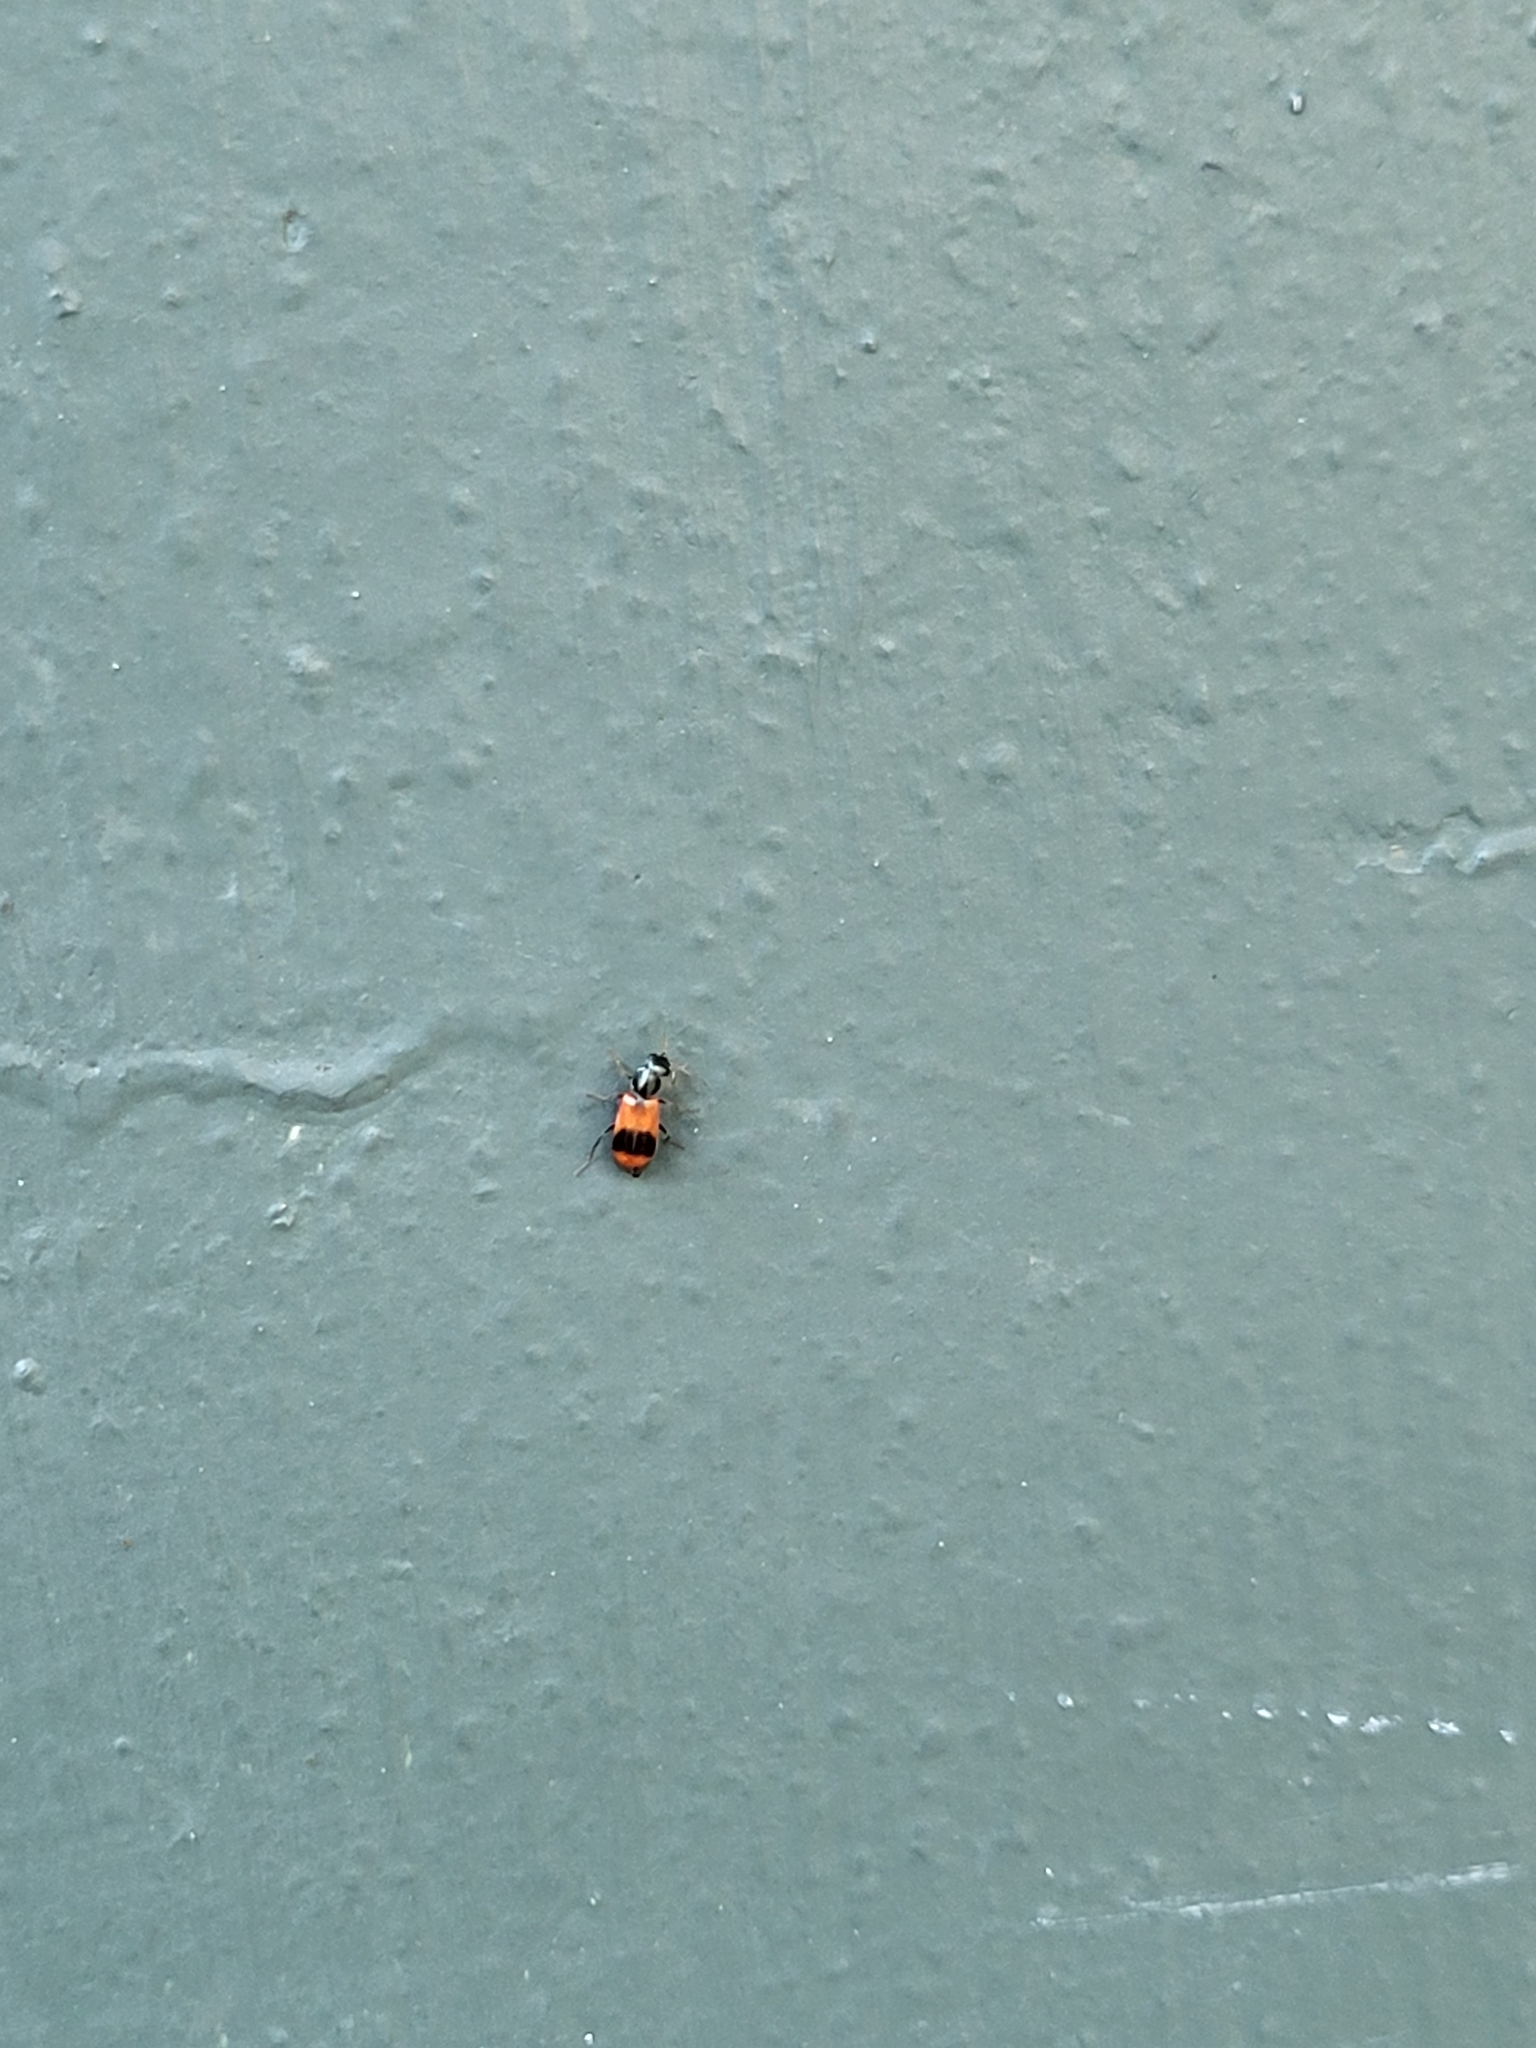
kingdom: Animalia
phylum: Arthropoda
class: Insecta
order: Coleoptera
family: Melyridae
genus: Anthocomus
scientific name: Anthocomus equestris
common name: Black-banded soft-winged flower beetle
